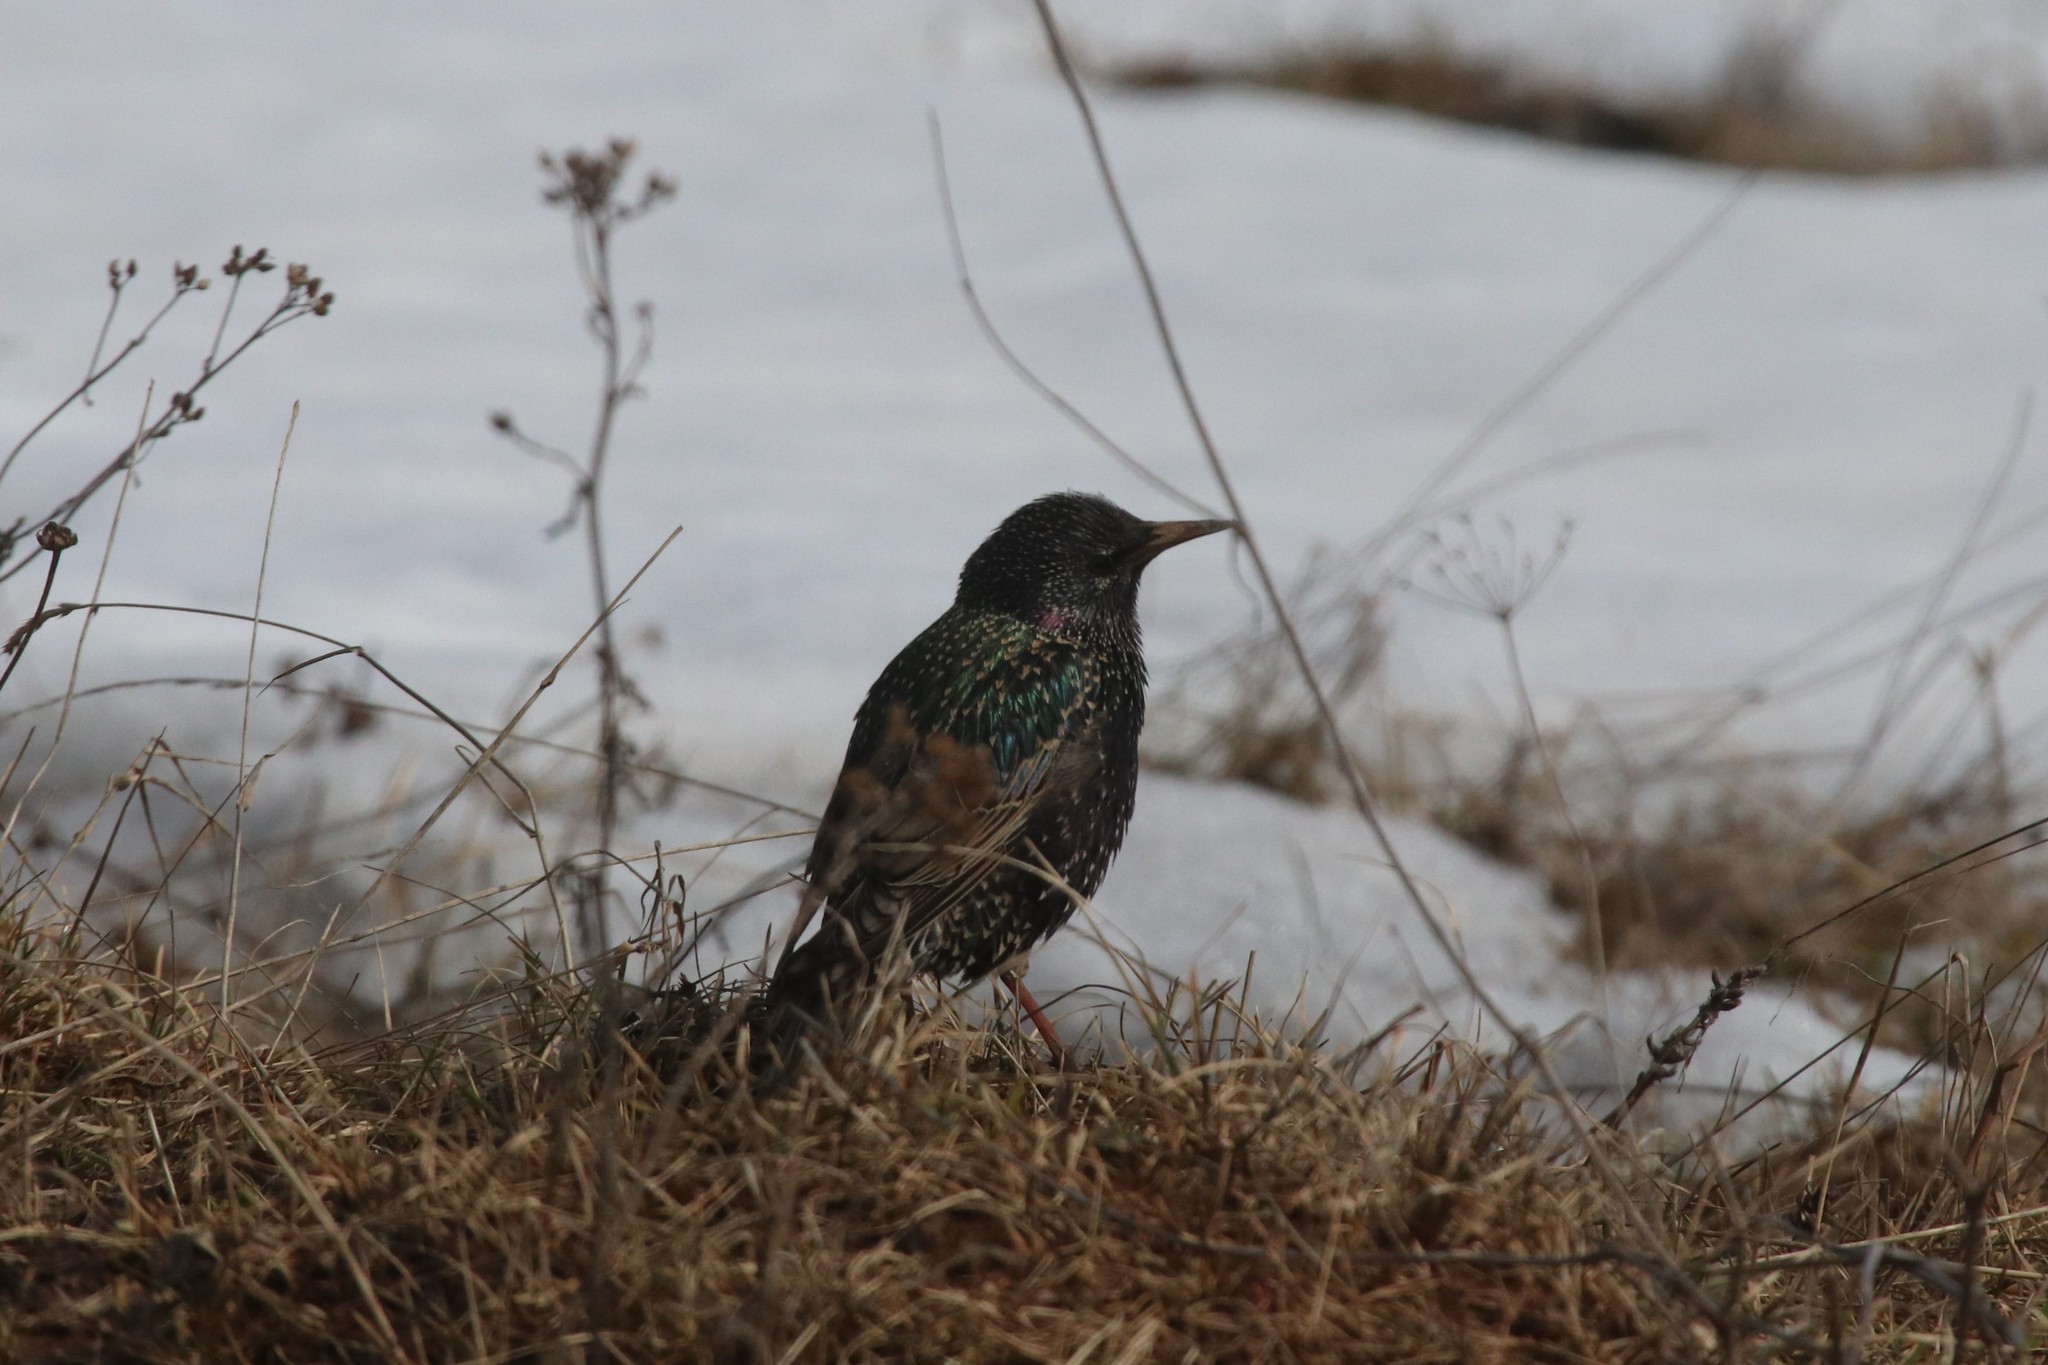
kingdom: Animalia
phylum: Chordata
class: Aves
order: Passeriformes
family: Sturnidae
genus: Sturnus
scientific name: Sturnus vulgaris
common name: Common starling
